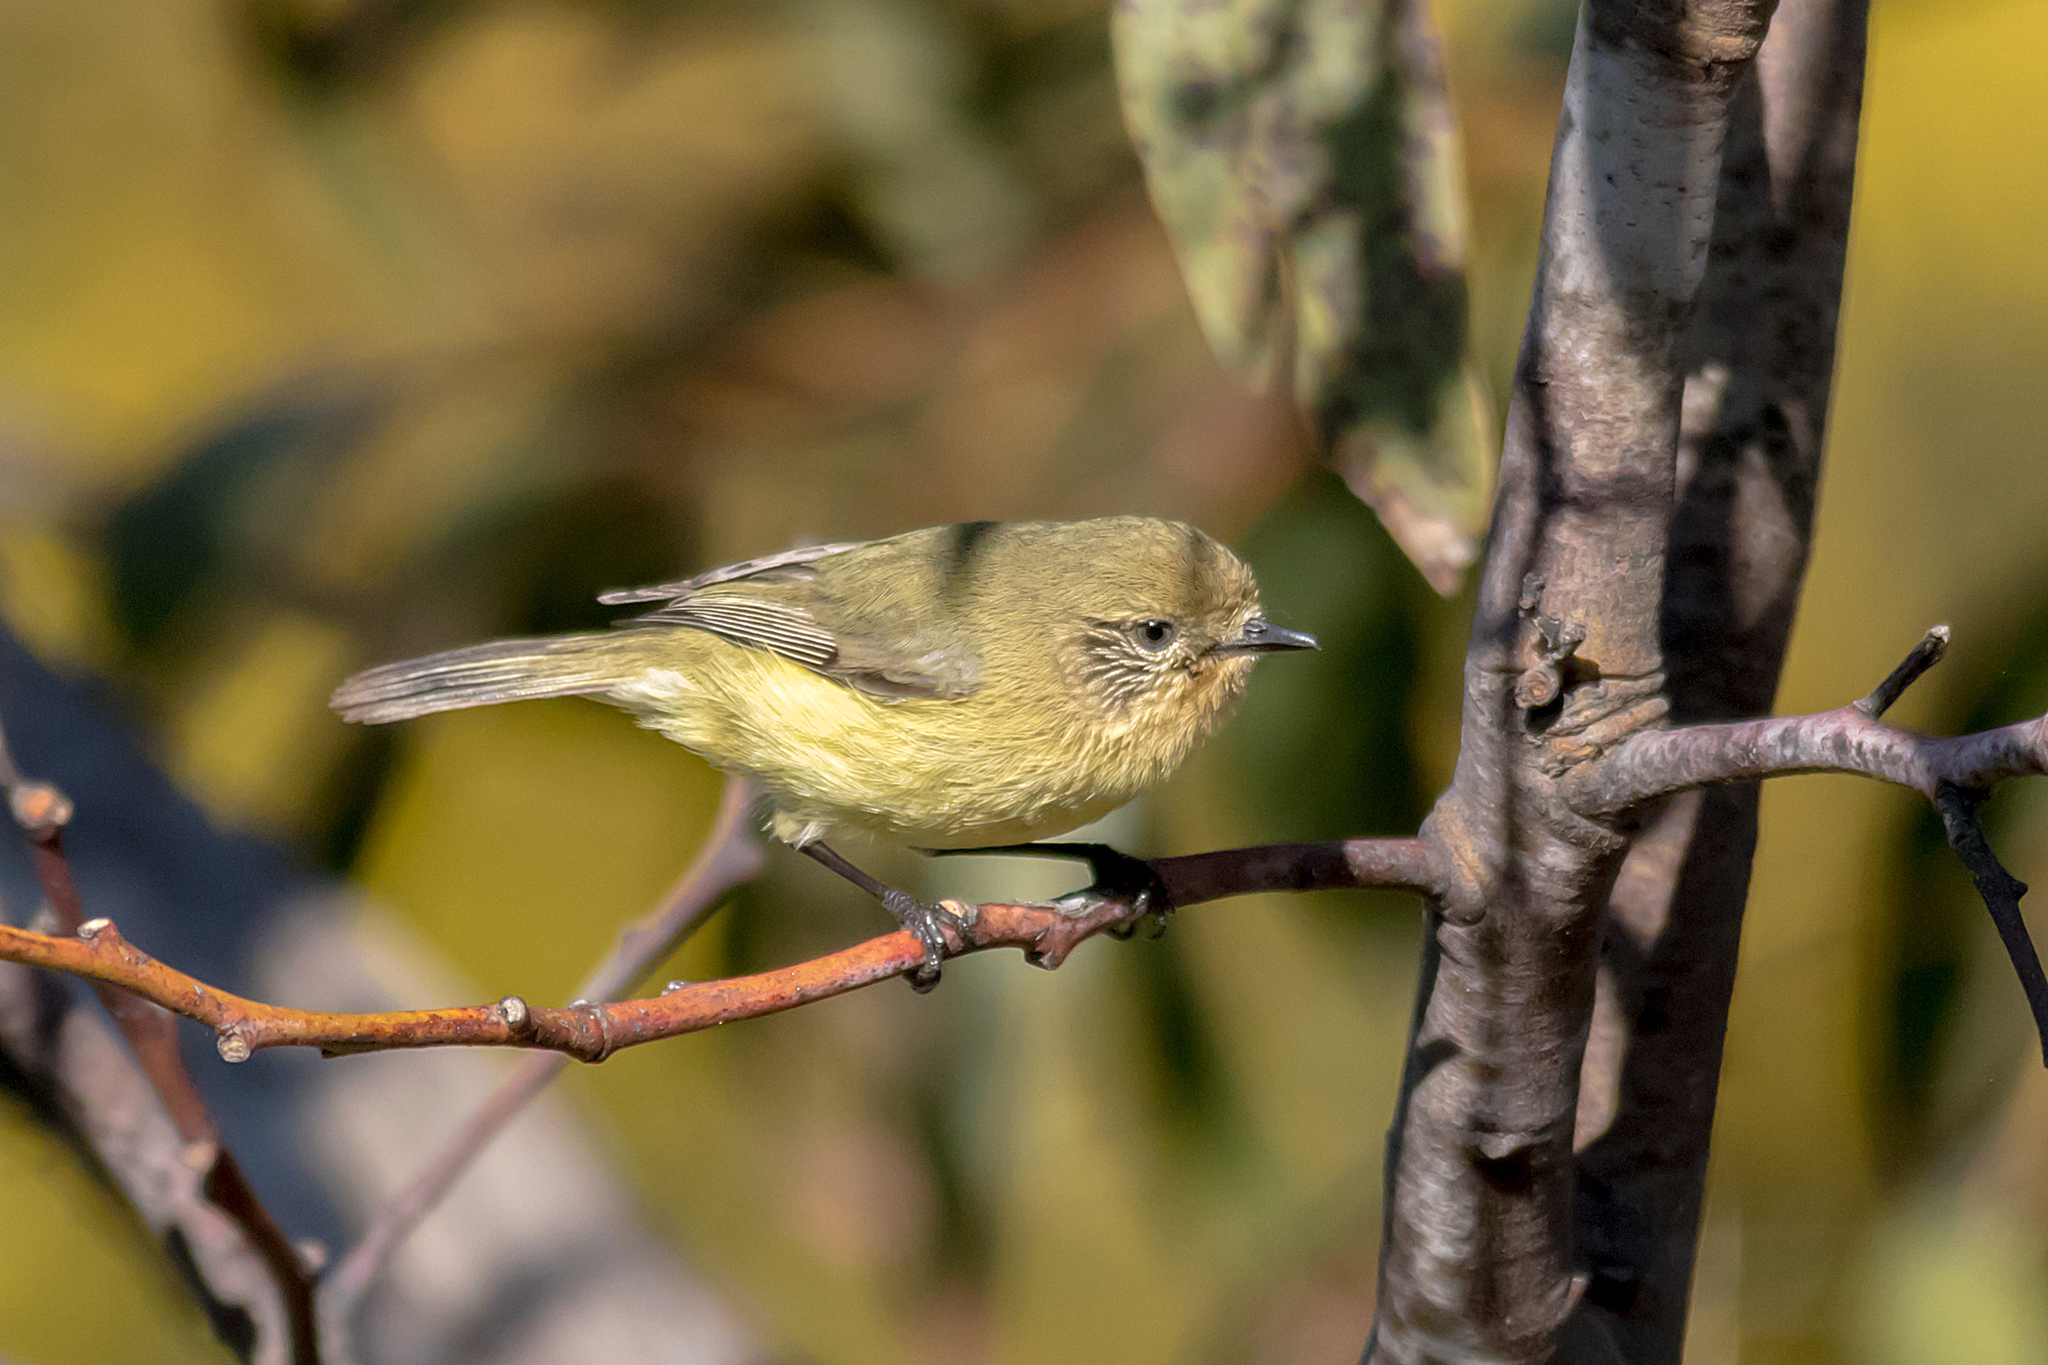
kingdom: Animalia
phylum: Chordata
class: Aves
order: Passeriformes
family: Acanthizidae
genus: Acanthiza
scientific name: Acanthiza nana
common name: Yellow thornbill
